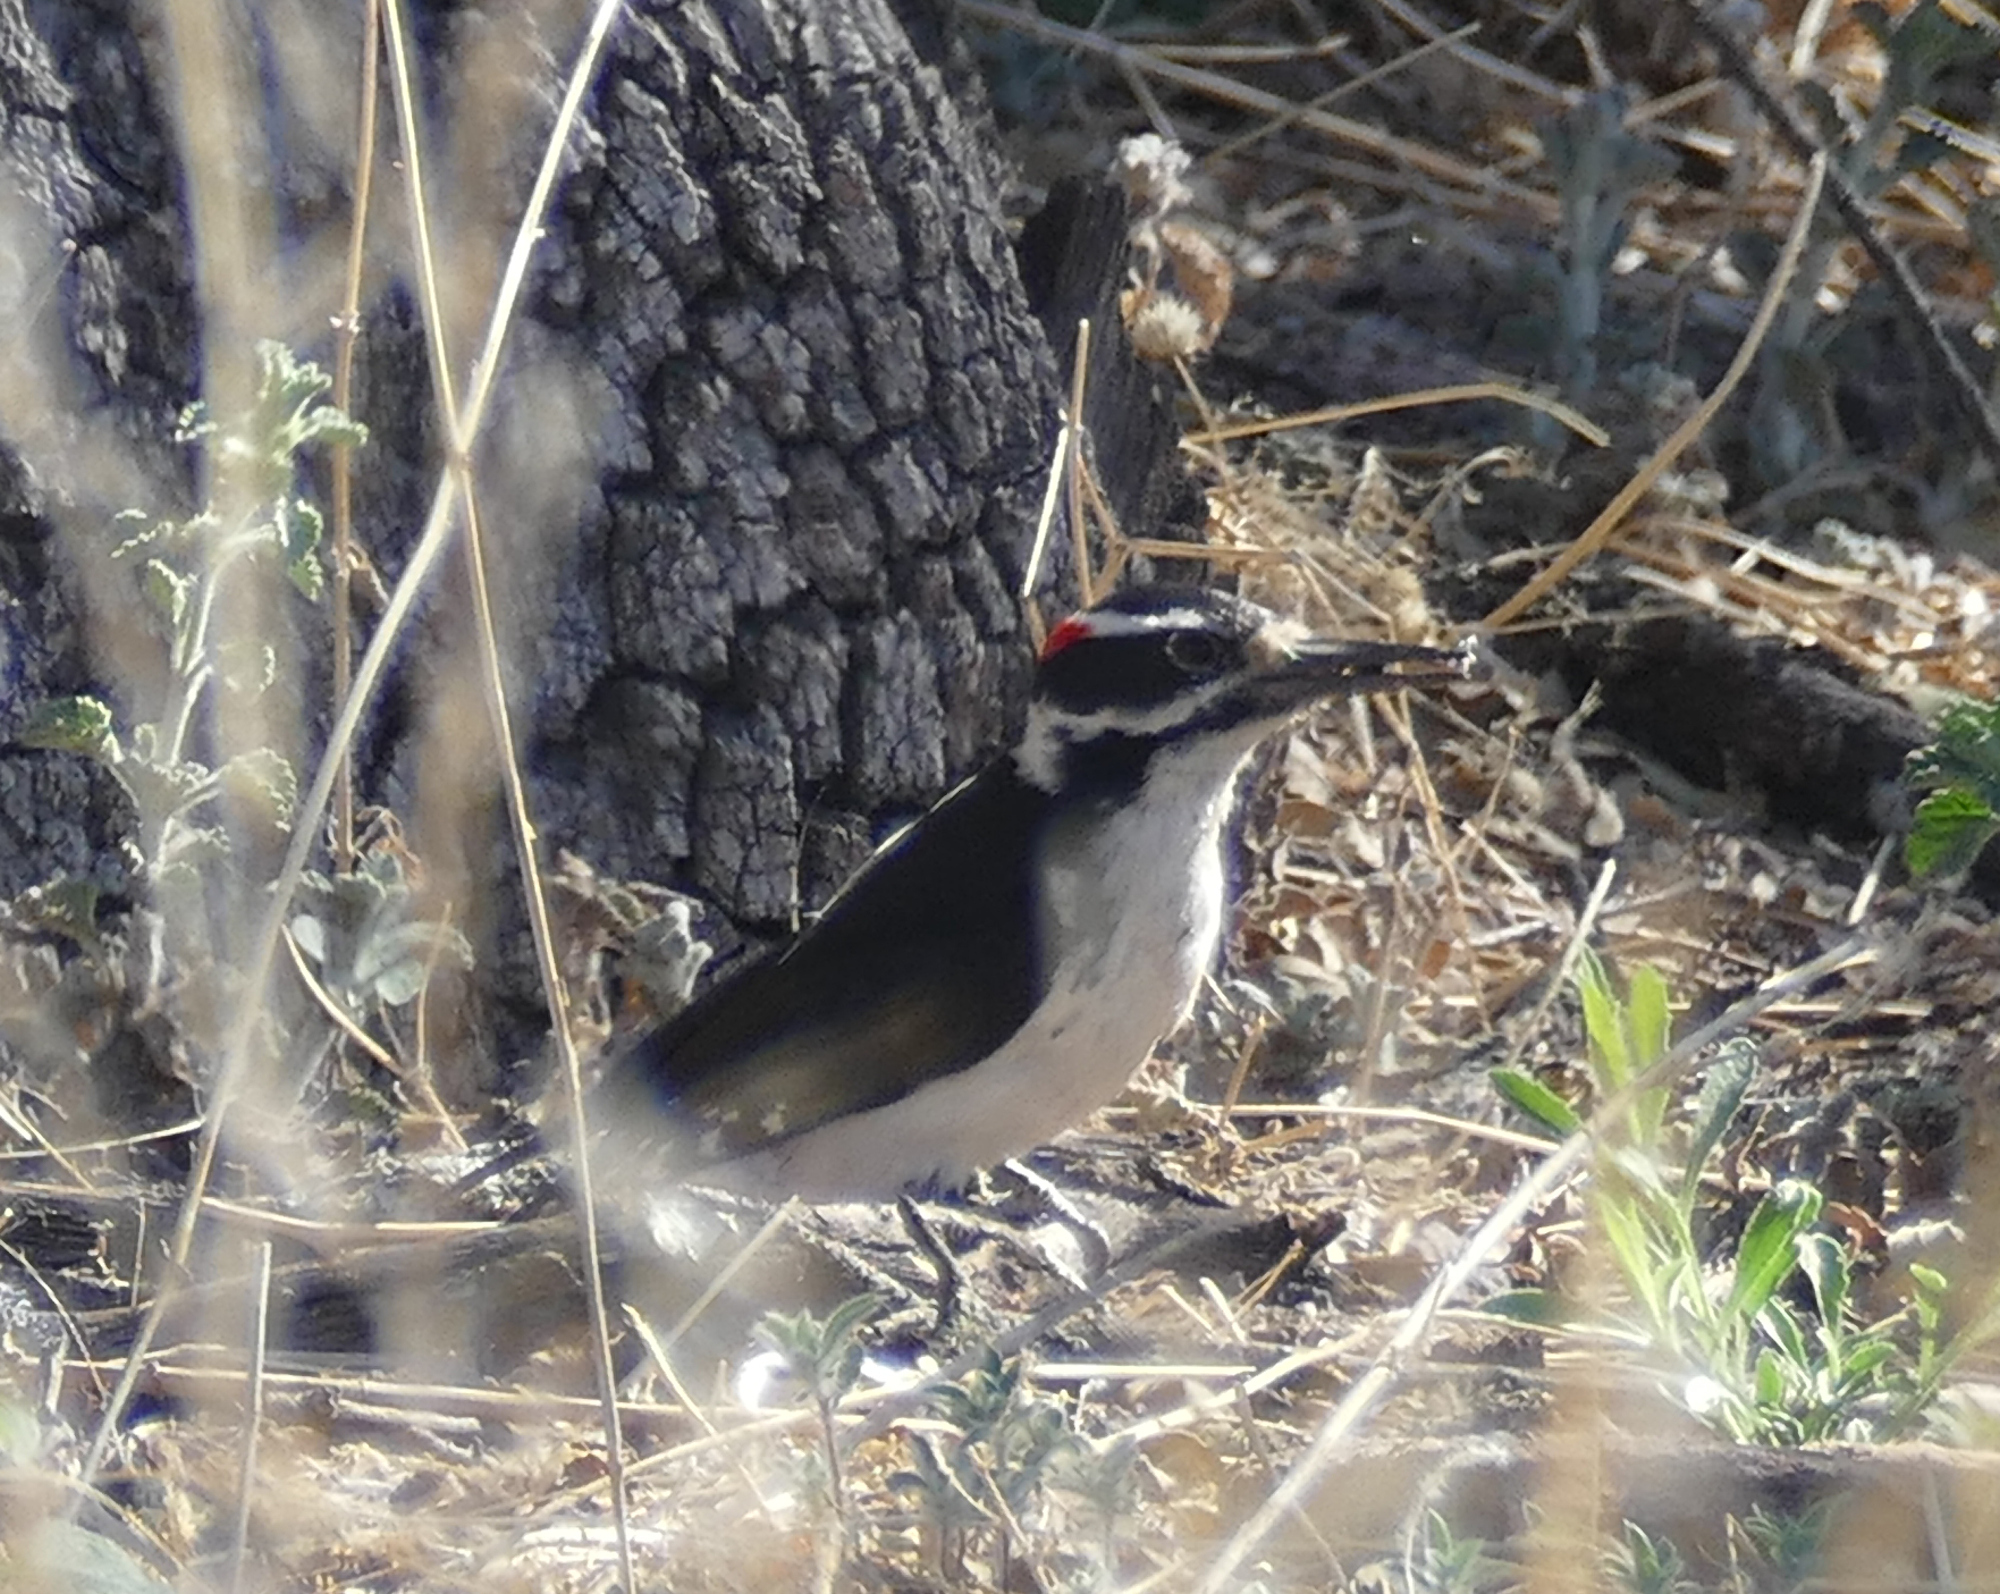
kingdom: Animalia
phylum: Chordata
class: Aves
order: Piciformes
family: Picidae
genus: Leuconotopicus
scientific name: Leuconotopicus villosus
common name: Hairy woodpecker
